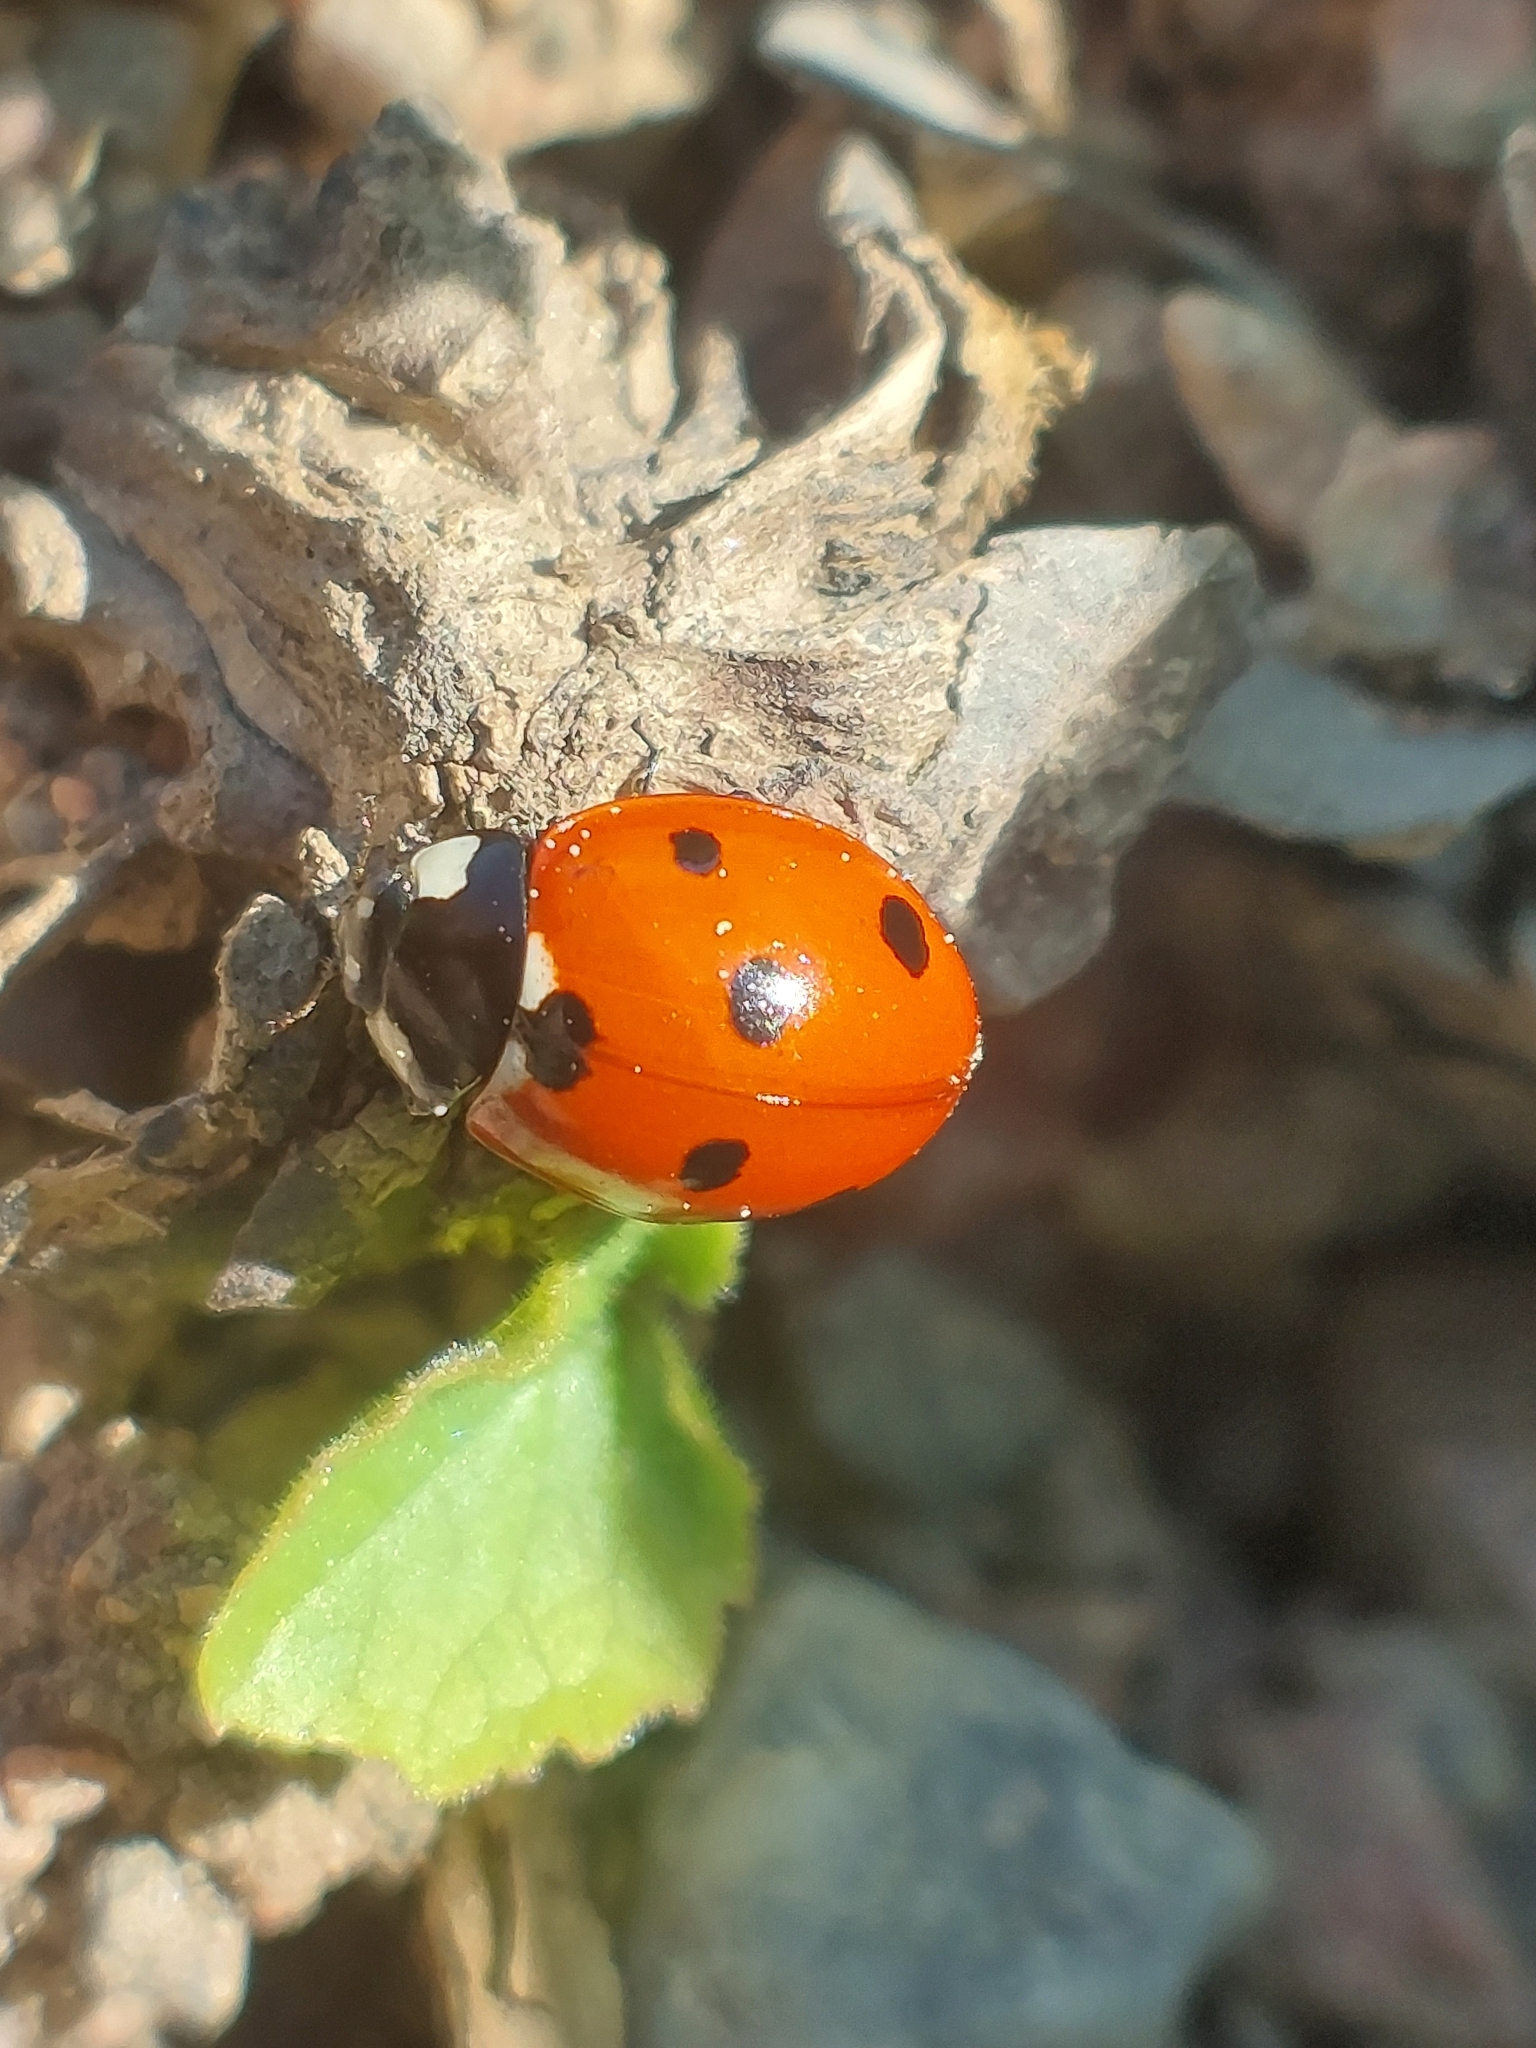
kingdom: Animalia
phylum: Arthropoda
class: Insecta
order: Coleoptera
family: Coccinellidae
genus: Coccinella
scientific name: Coccinella septempunctata
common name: Sevenspotted lady beetle
